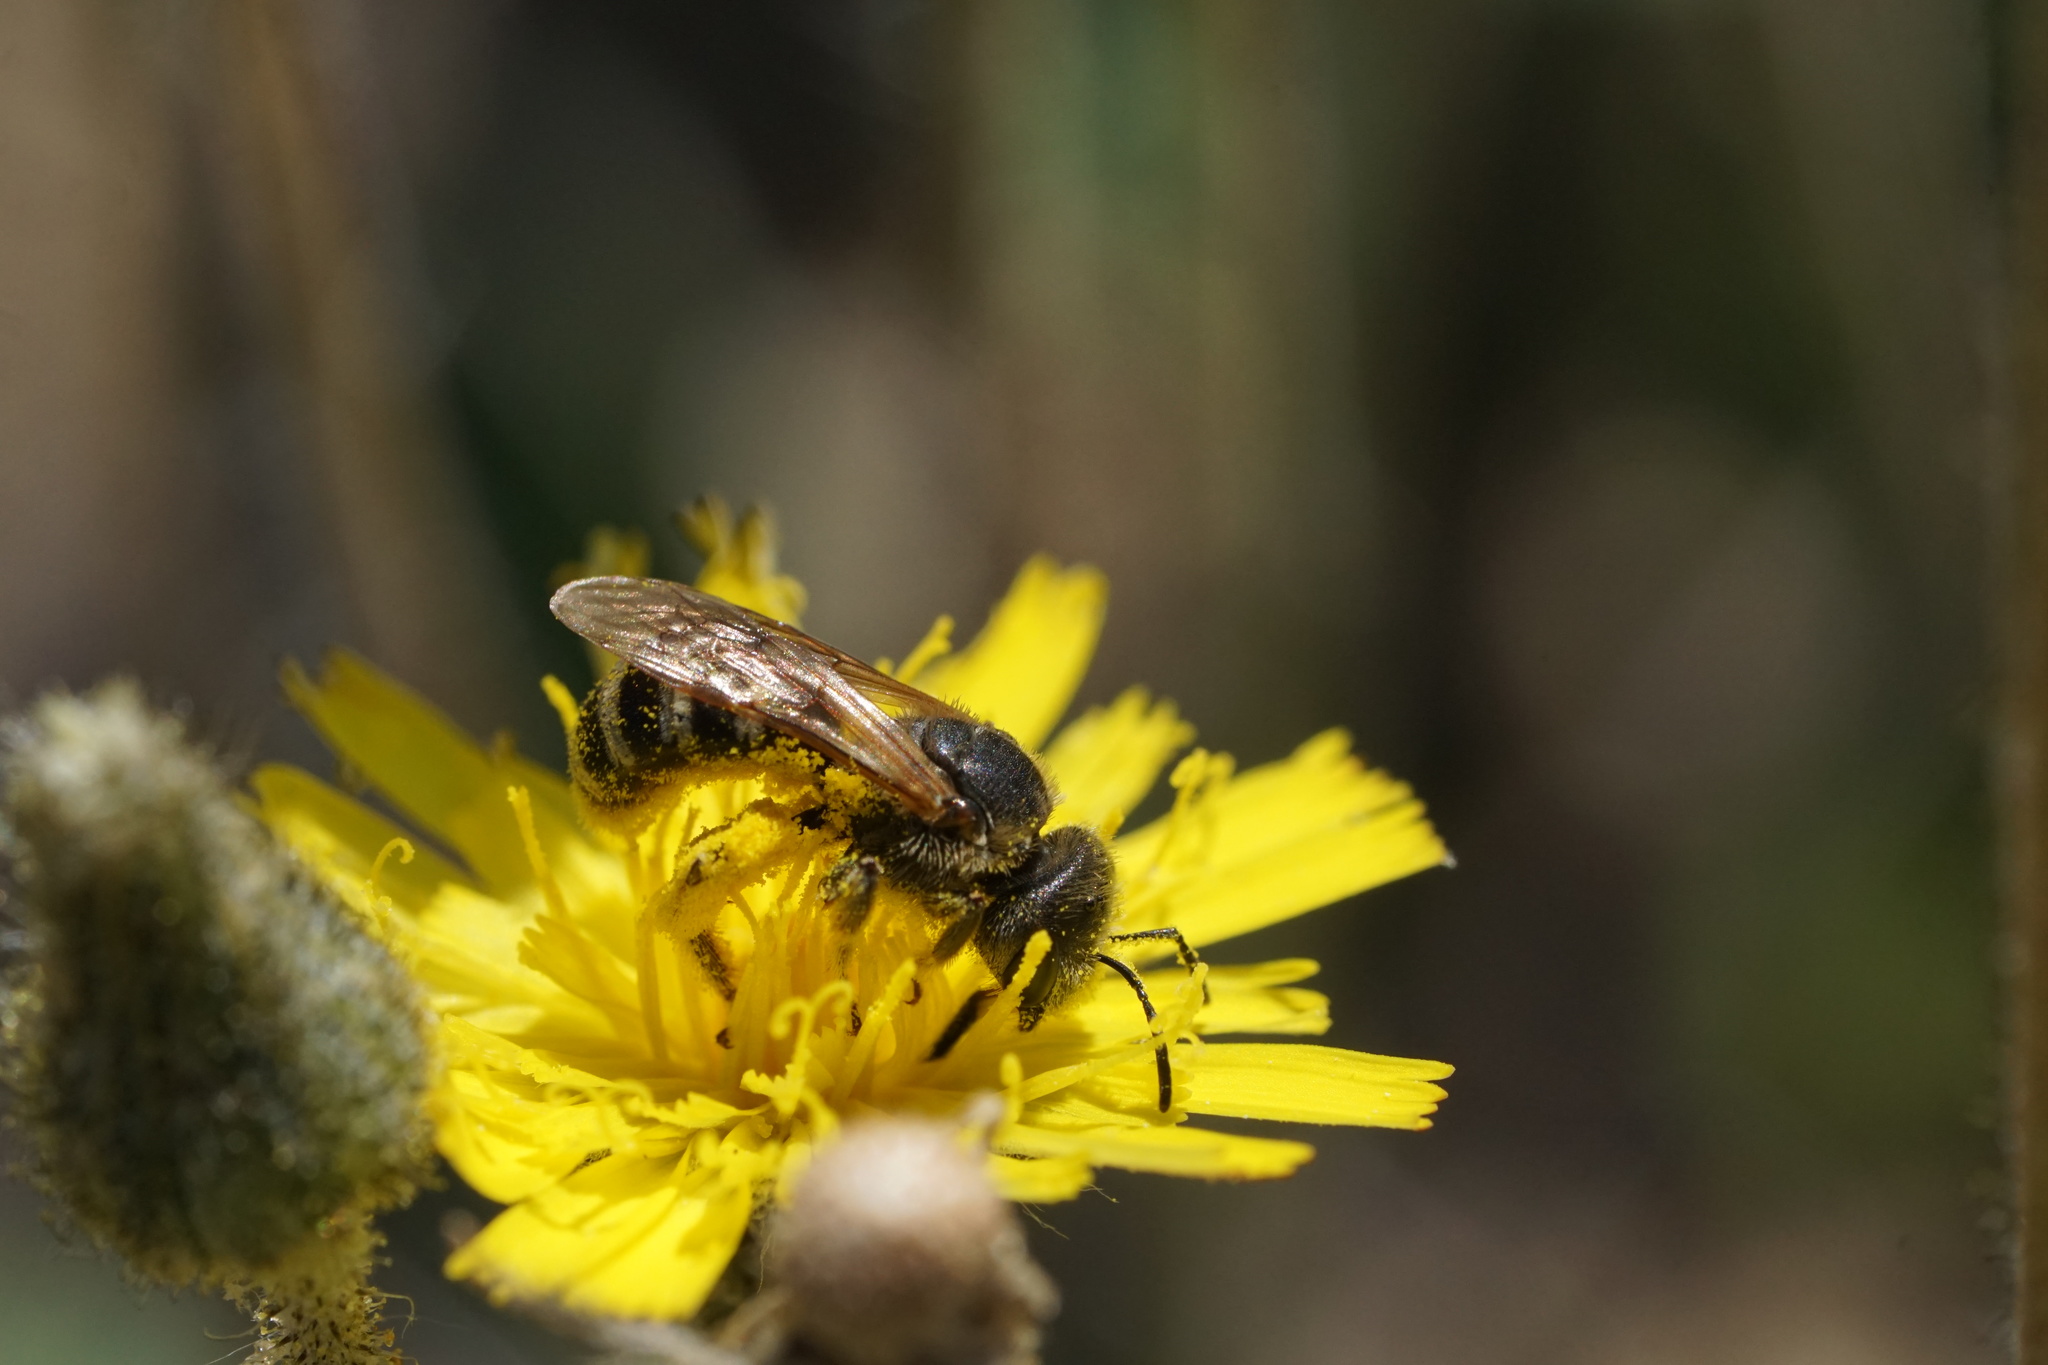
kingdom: Animalia
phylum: Arthropoda
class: Insecta
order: Hymenoptera
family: Halictidae
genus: Halictus
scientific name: Halictus ligatus
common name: Ligated furrow bee
